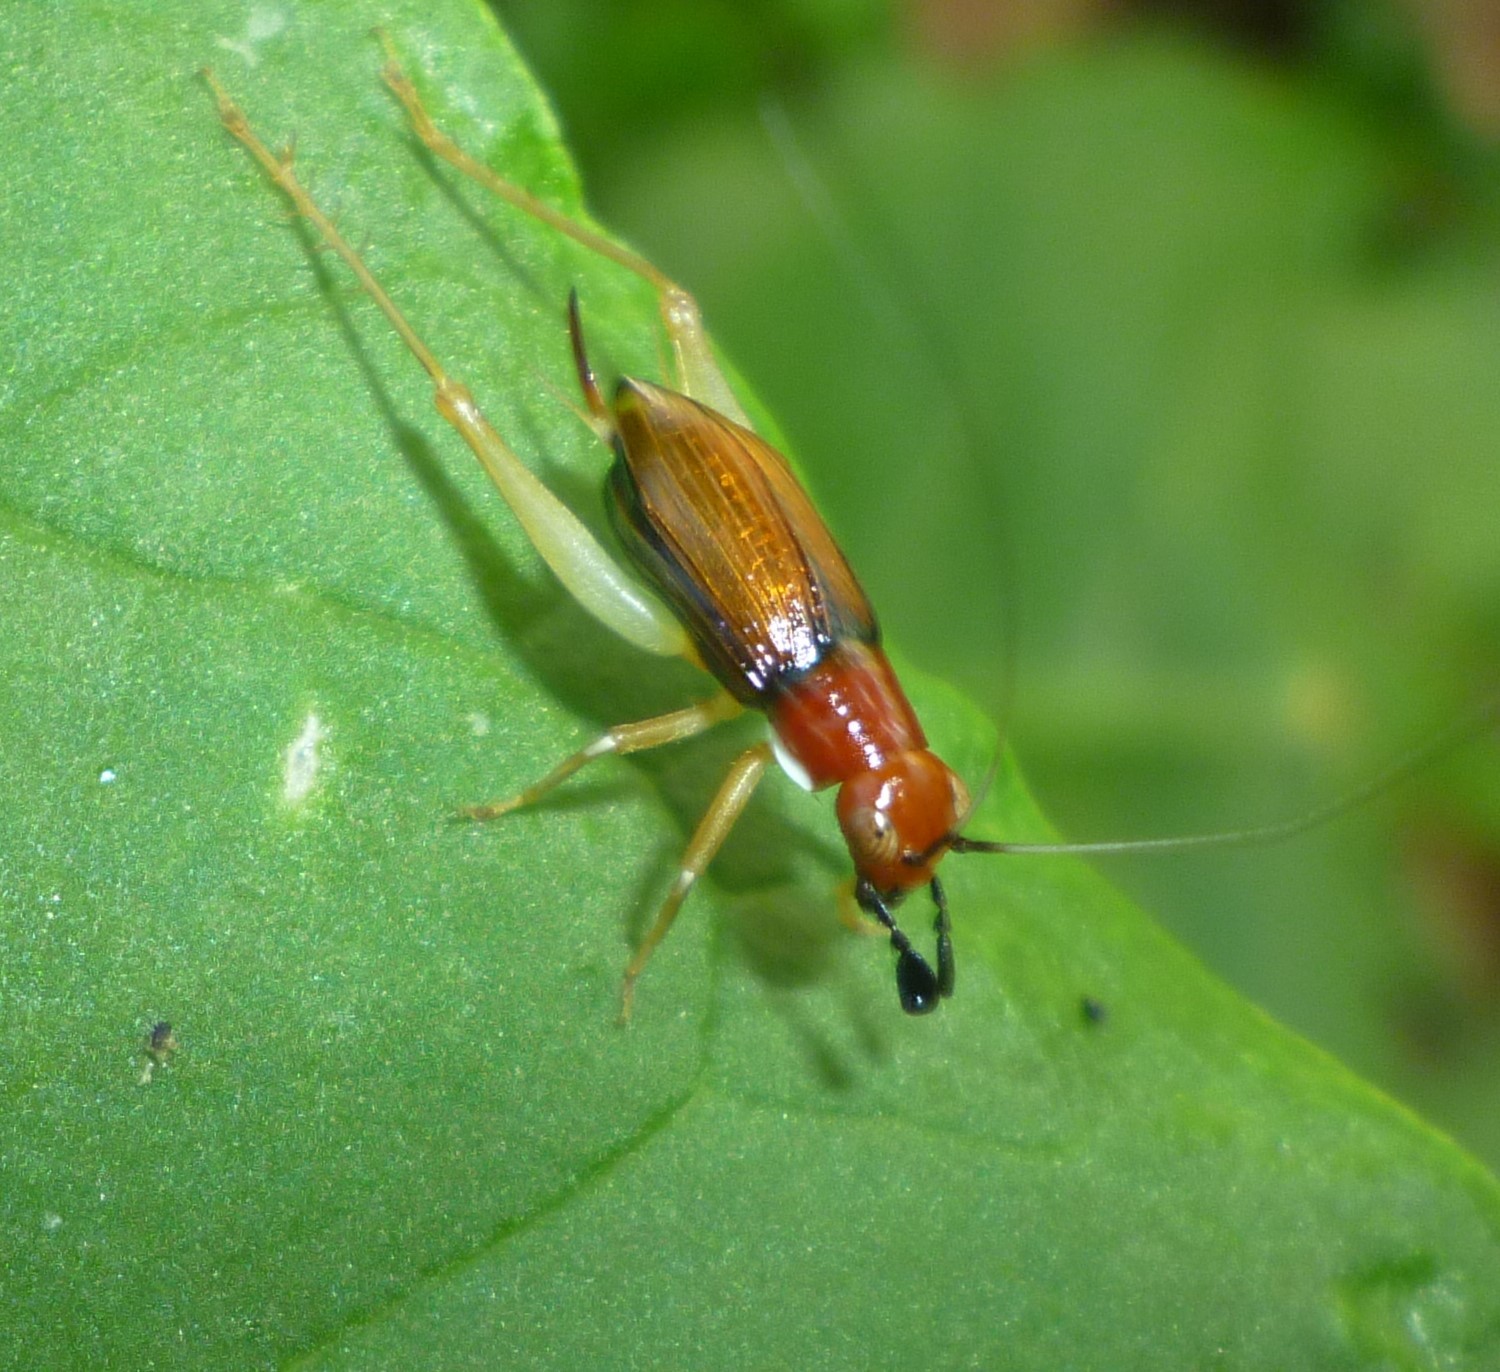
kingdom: Animalia
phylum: Arthropoda
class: Insecta
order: Orthoptera
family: Trigonidiidae
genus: Phyllopalpus
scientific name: Phyllopalpus pulchellus
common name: Handsome trig
